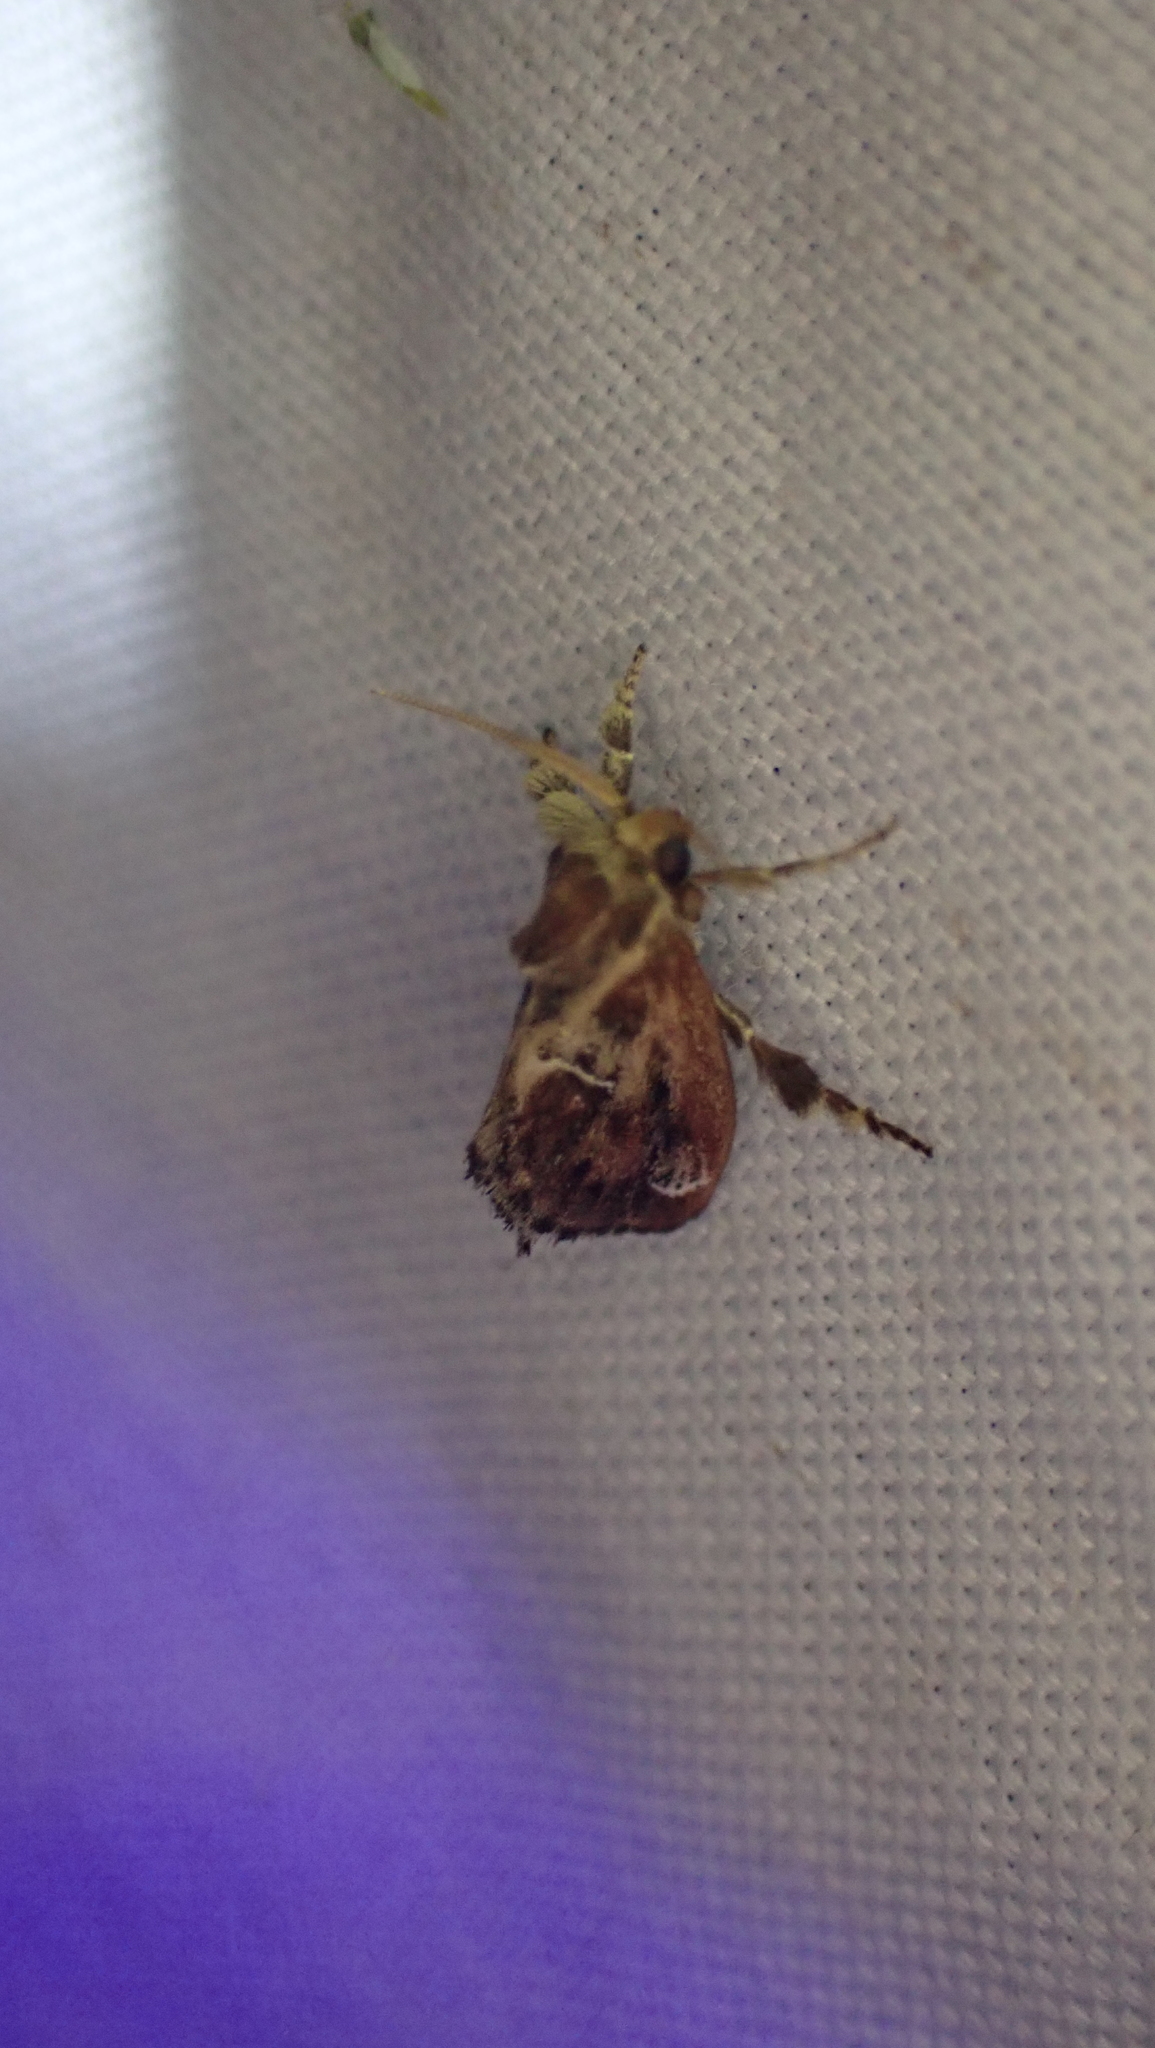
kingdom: Animalia
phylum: Arthropoda
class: Insecta
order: Lepidoptera
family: Limacodidae
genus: Adoneta
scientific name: Adoneta spinuloides
